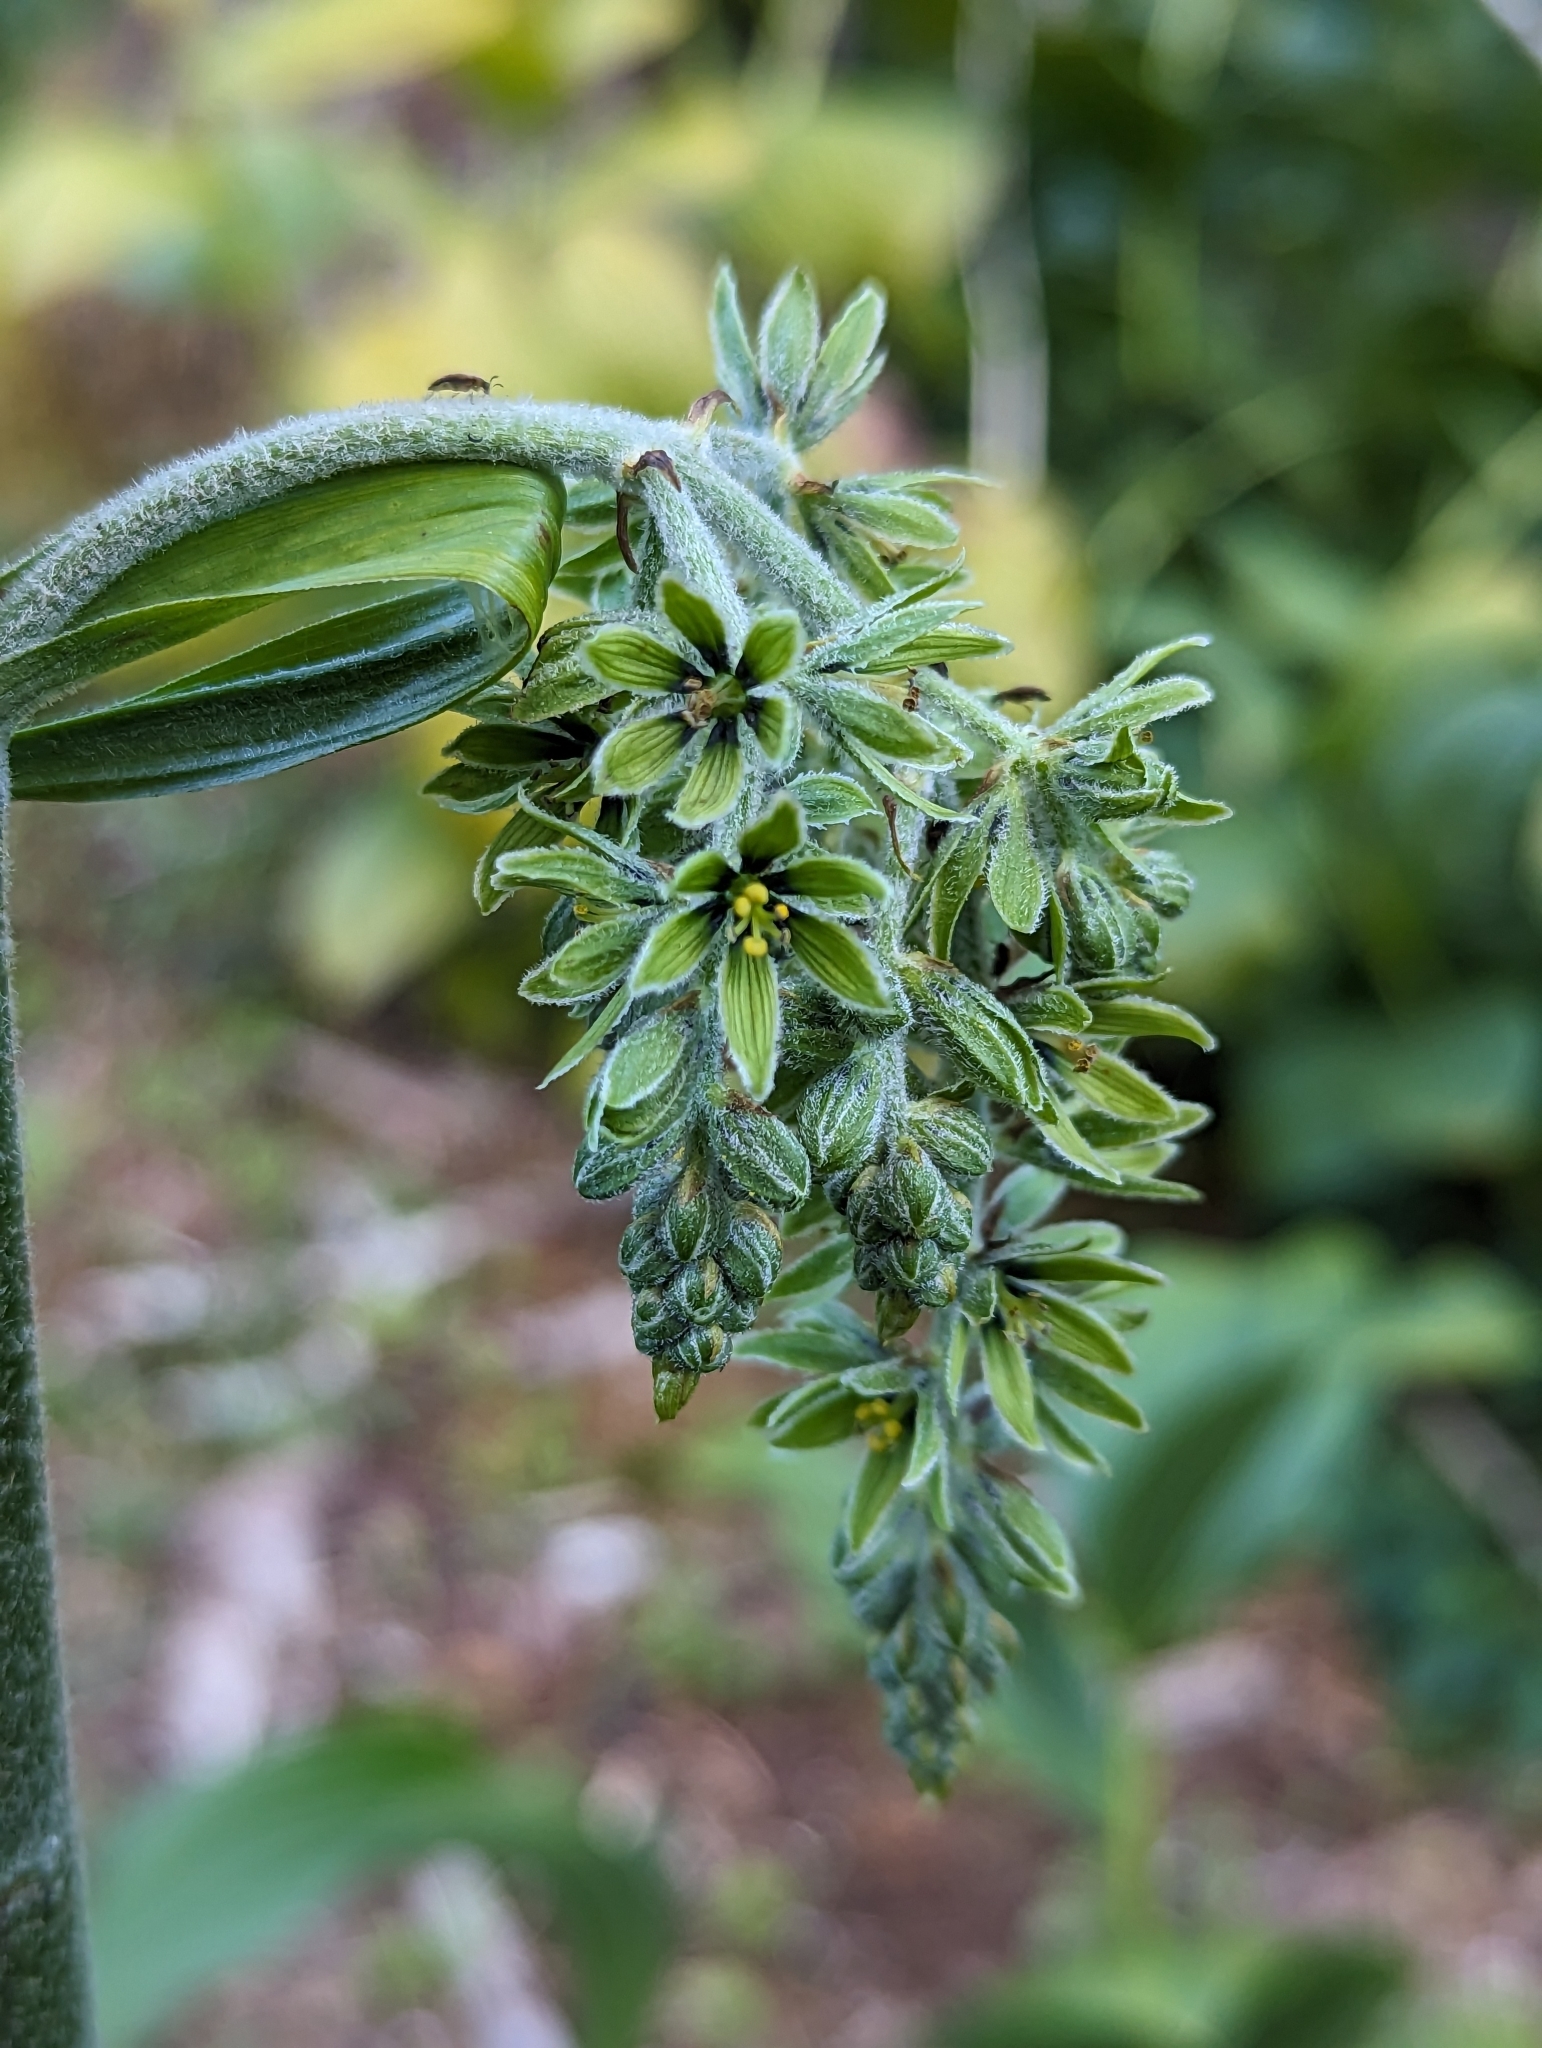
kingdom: Plantae
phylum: Tracheophyta
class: Liliopsida
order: Liliales
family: Melanthiaceae
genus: Veratrum
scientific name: Veratrum viride
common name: American false hellebore
